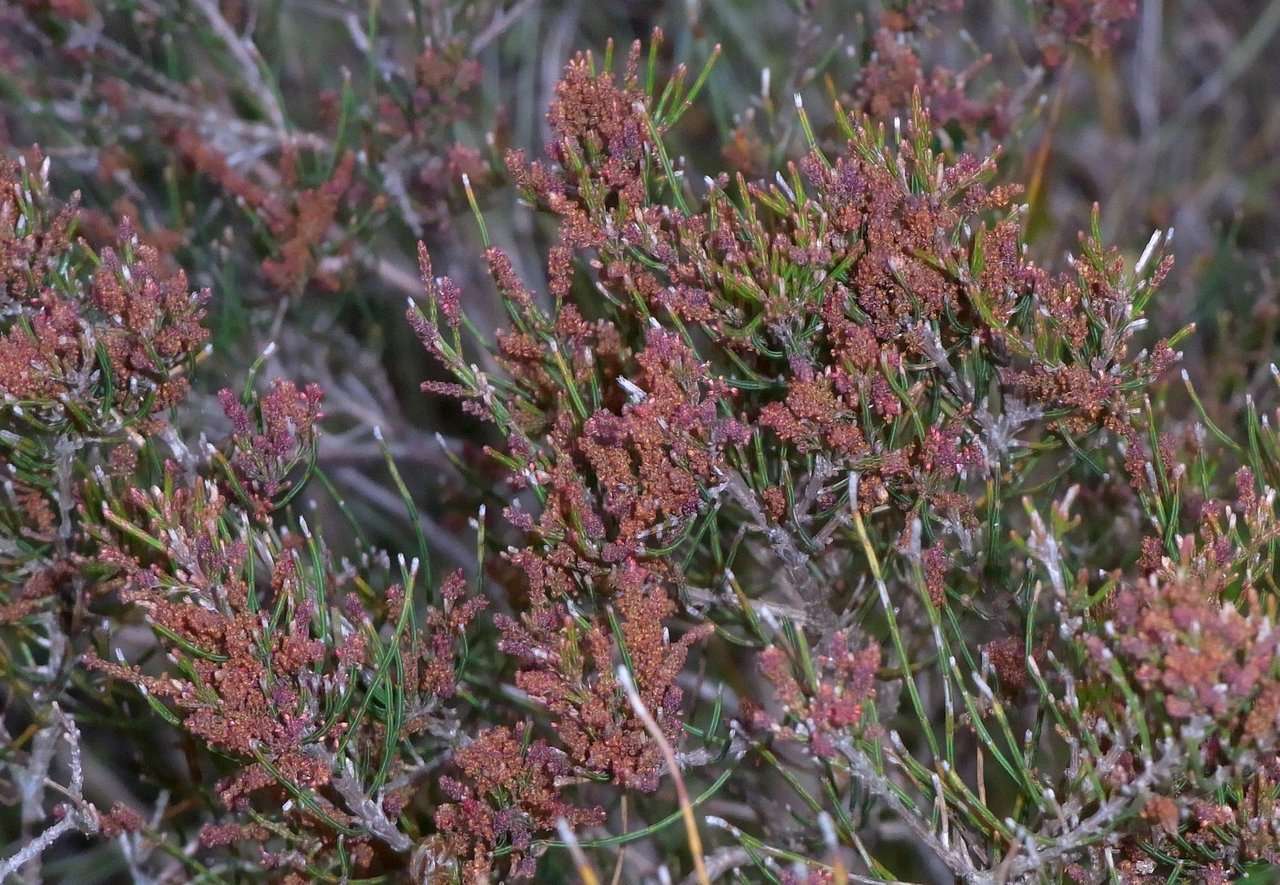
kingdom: Plantae
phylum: Tracheophyta
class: Magnoliopsida
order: Fagales
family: Casuarinaceae
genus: Allocasuarina
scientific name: Allocasuarina misera
